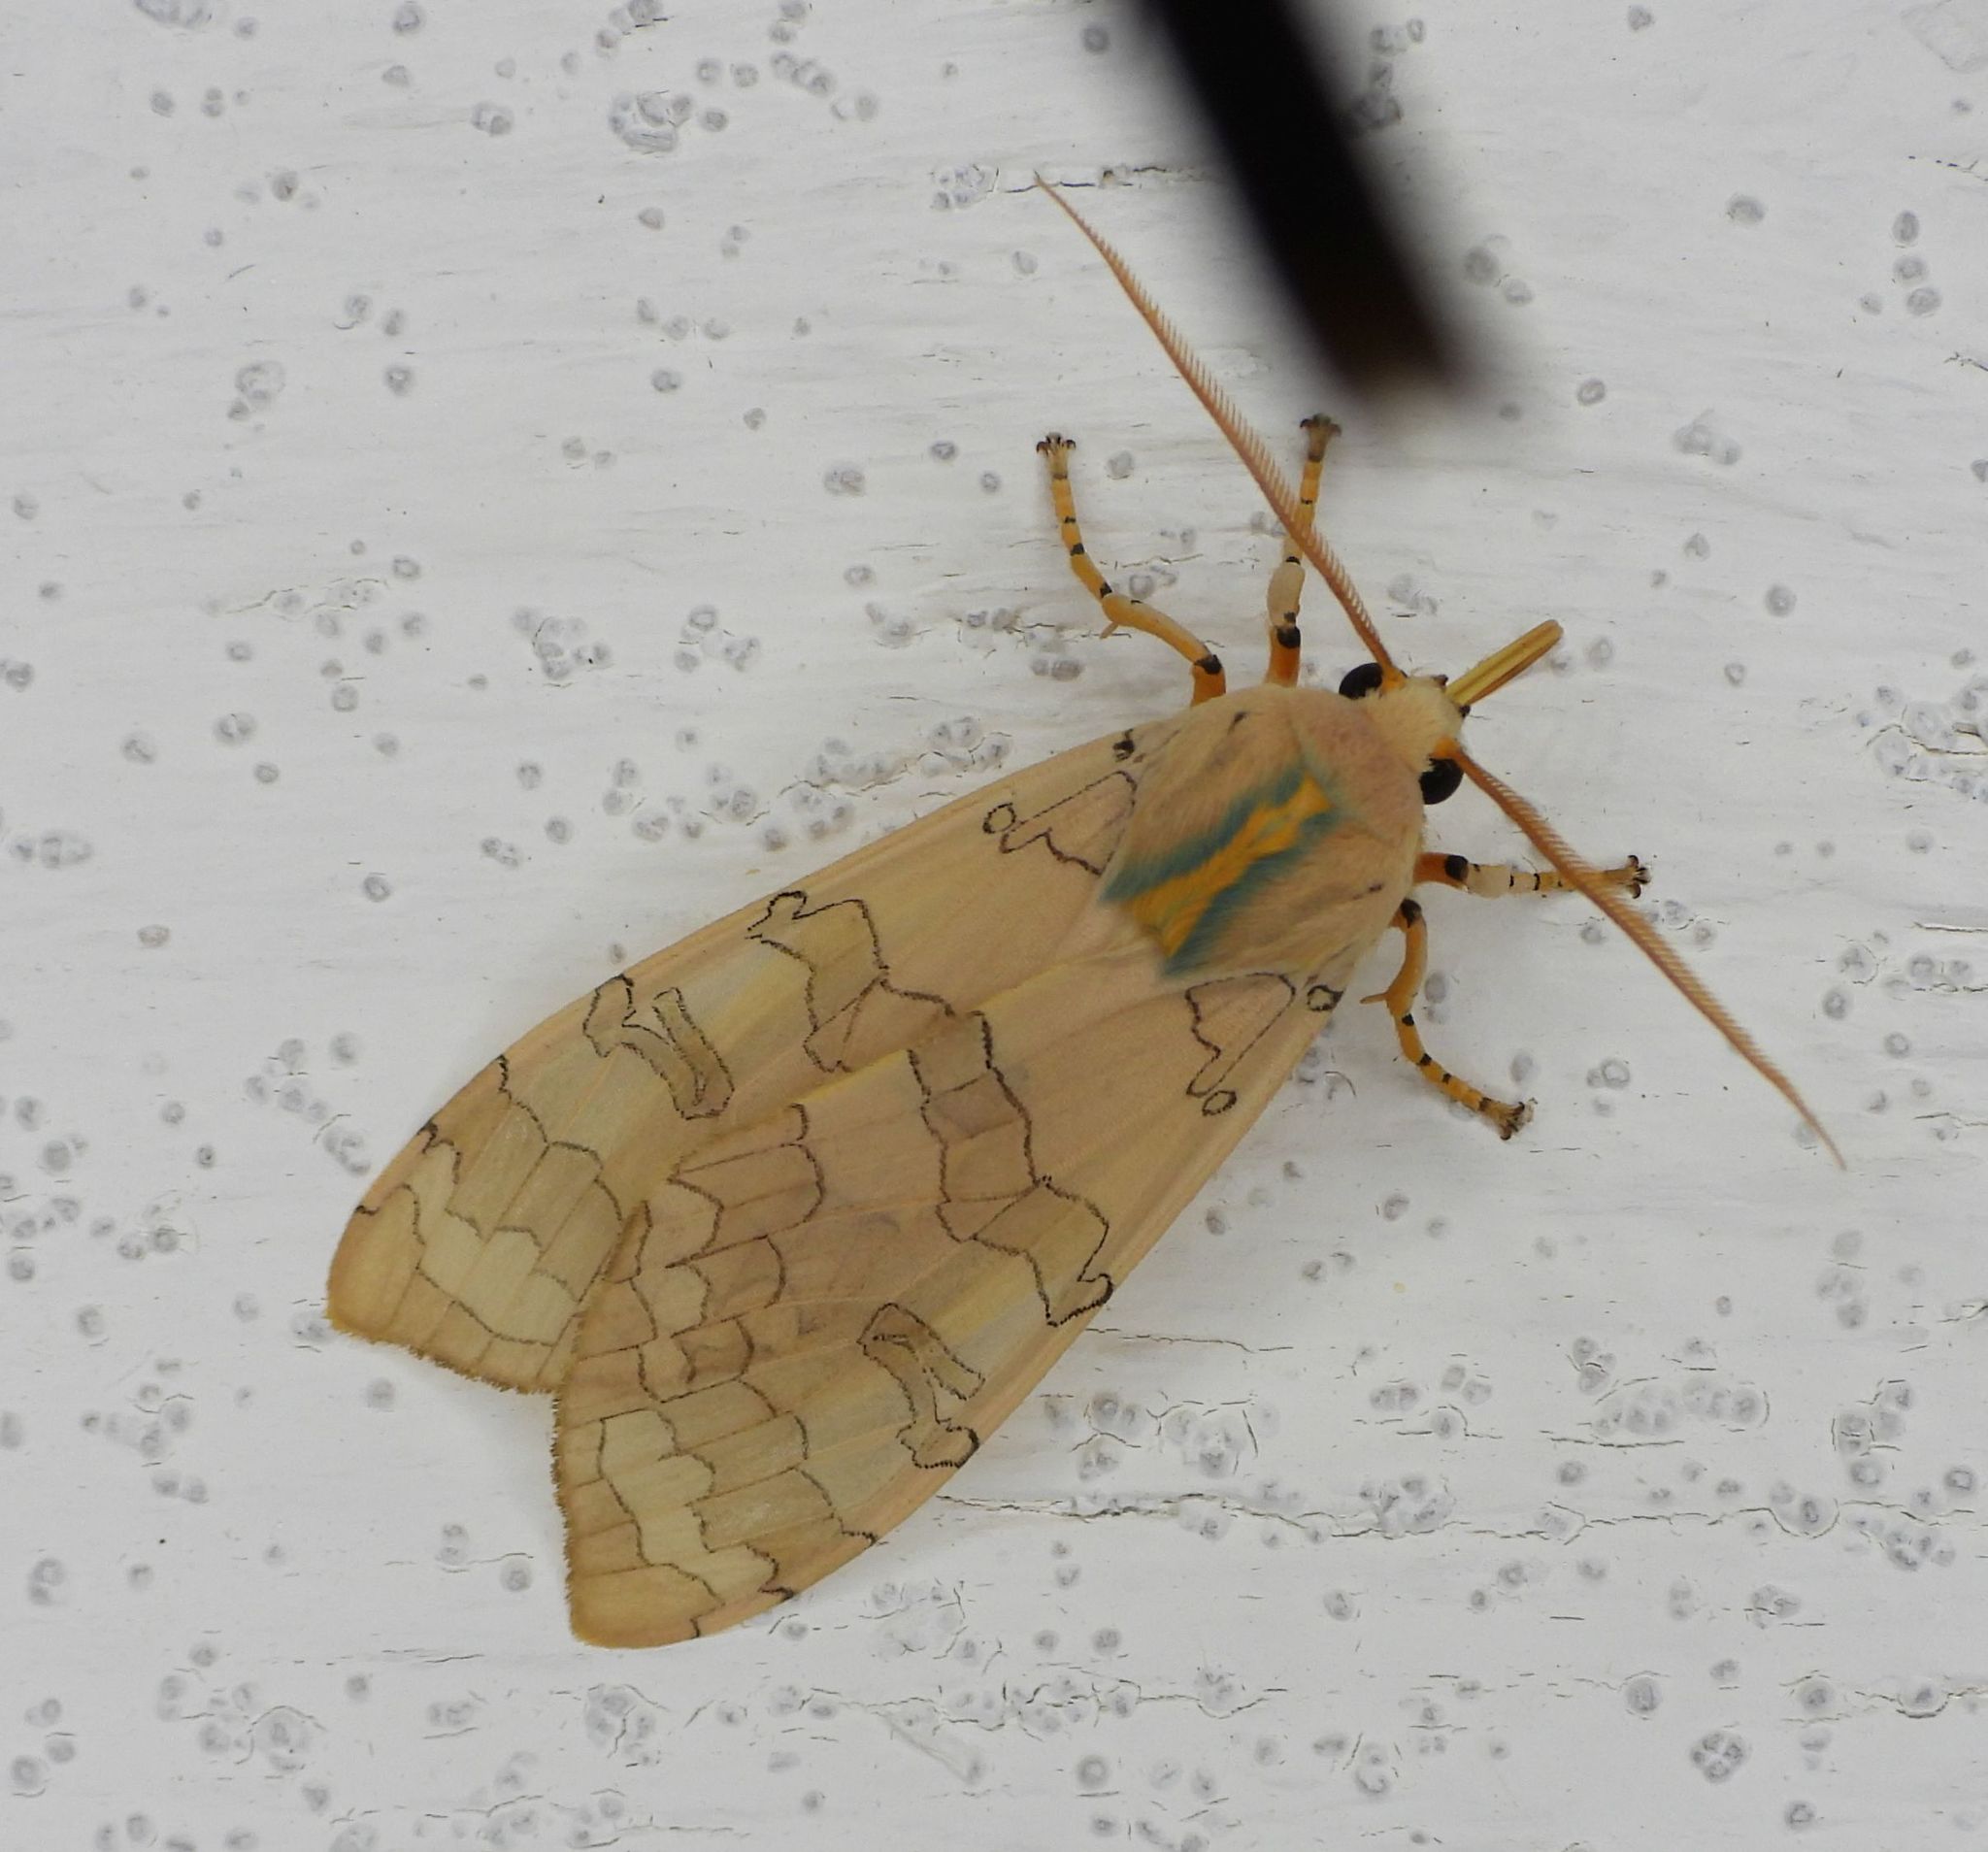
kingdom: Animalia
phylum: Arthropoda
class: Insecta
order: Lepidoptera
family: Erebidae
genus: Halysidota
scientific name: Halysidota tessellaris
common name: Banded tussock moth
